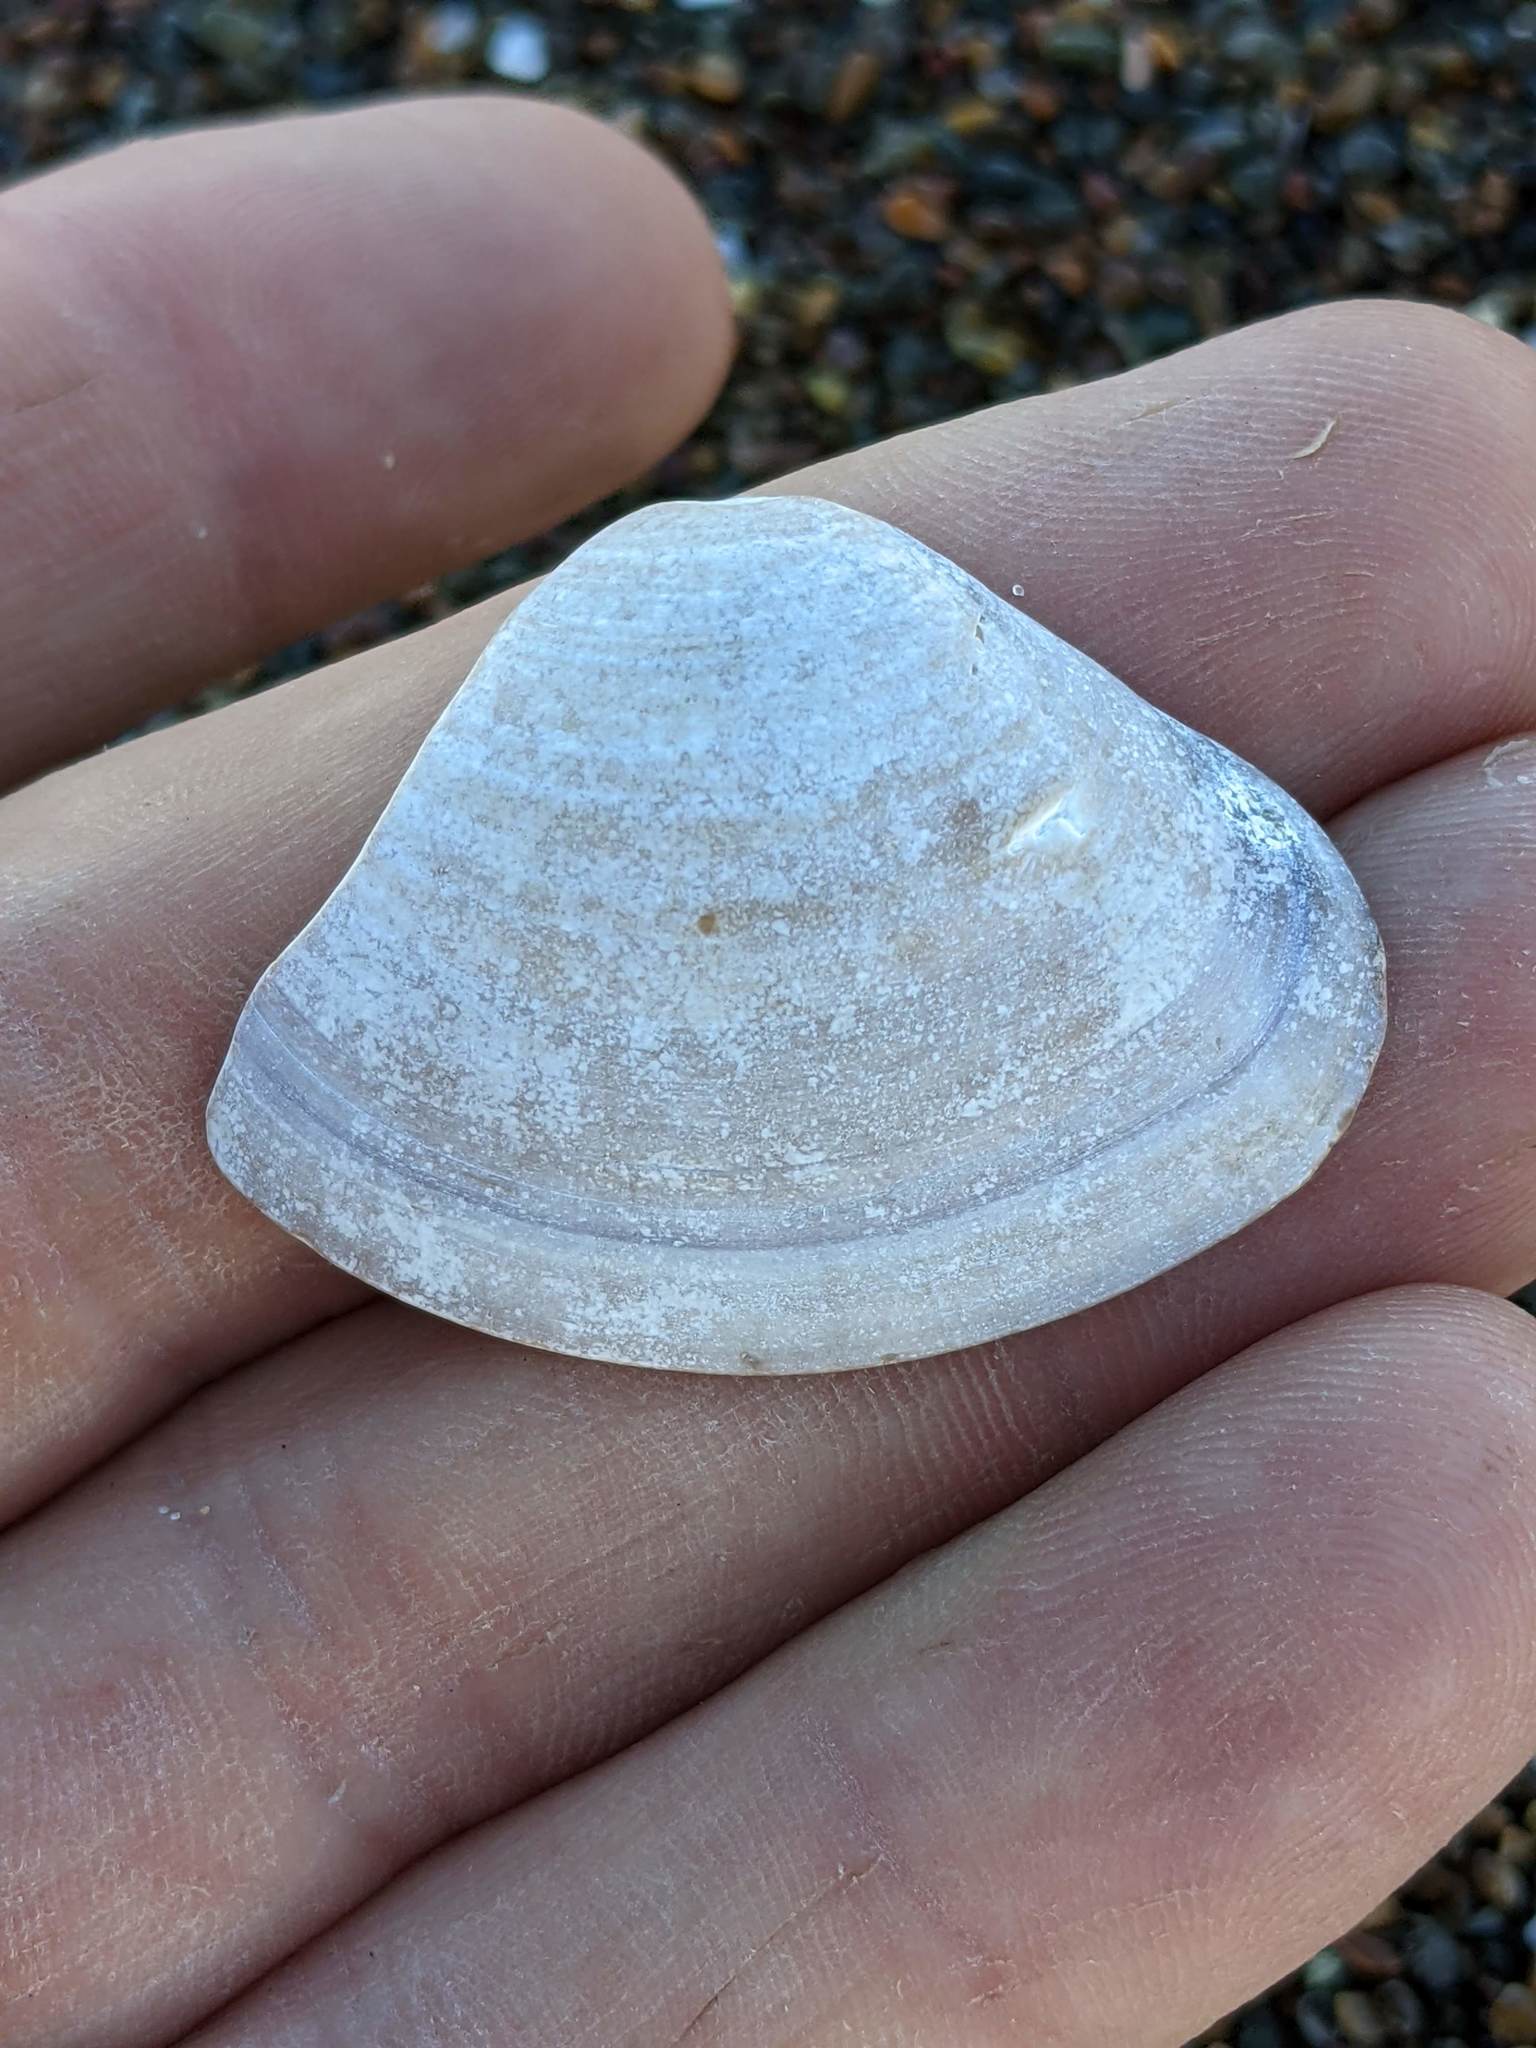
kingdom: Animalia
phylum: Mollusca
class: Bivalvia
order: Venerida
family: Veneridae
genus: Tivela
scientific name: Tivela stultorum
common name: Pismo clam
